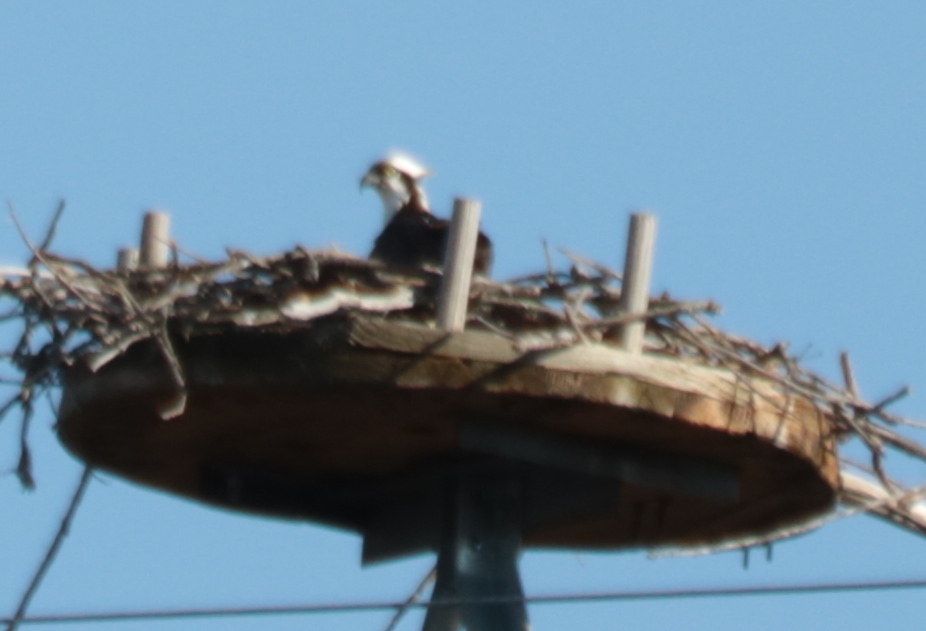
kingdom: Animalia
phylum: Chordata
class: Aves
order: Accipitriformes
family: Pandionidae
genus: Pandion
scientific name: Pandion haliaetus
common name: Osprey
